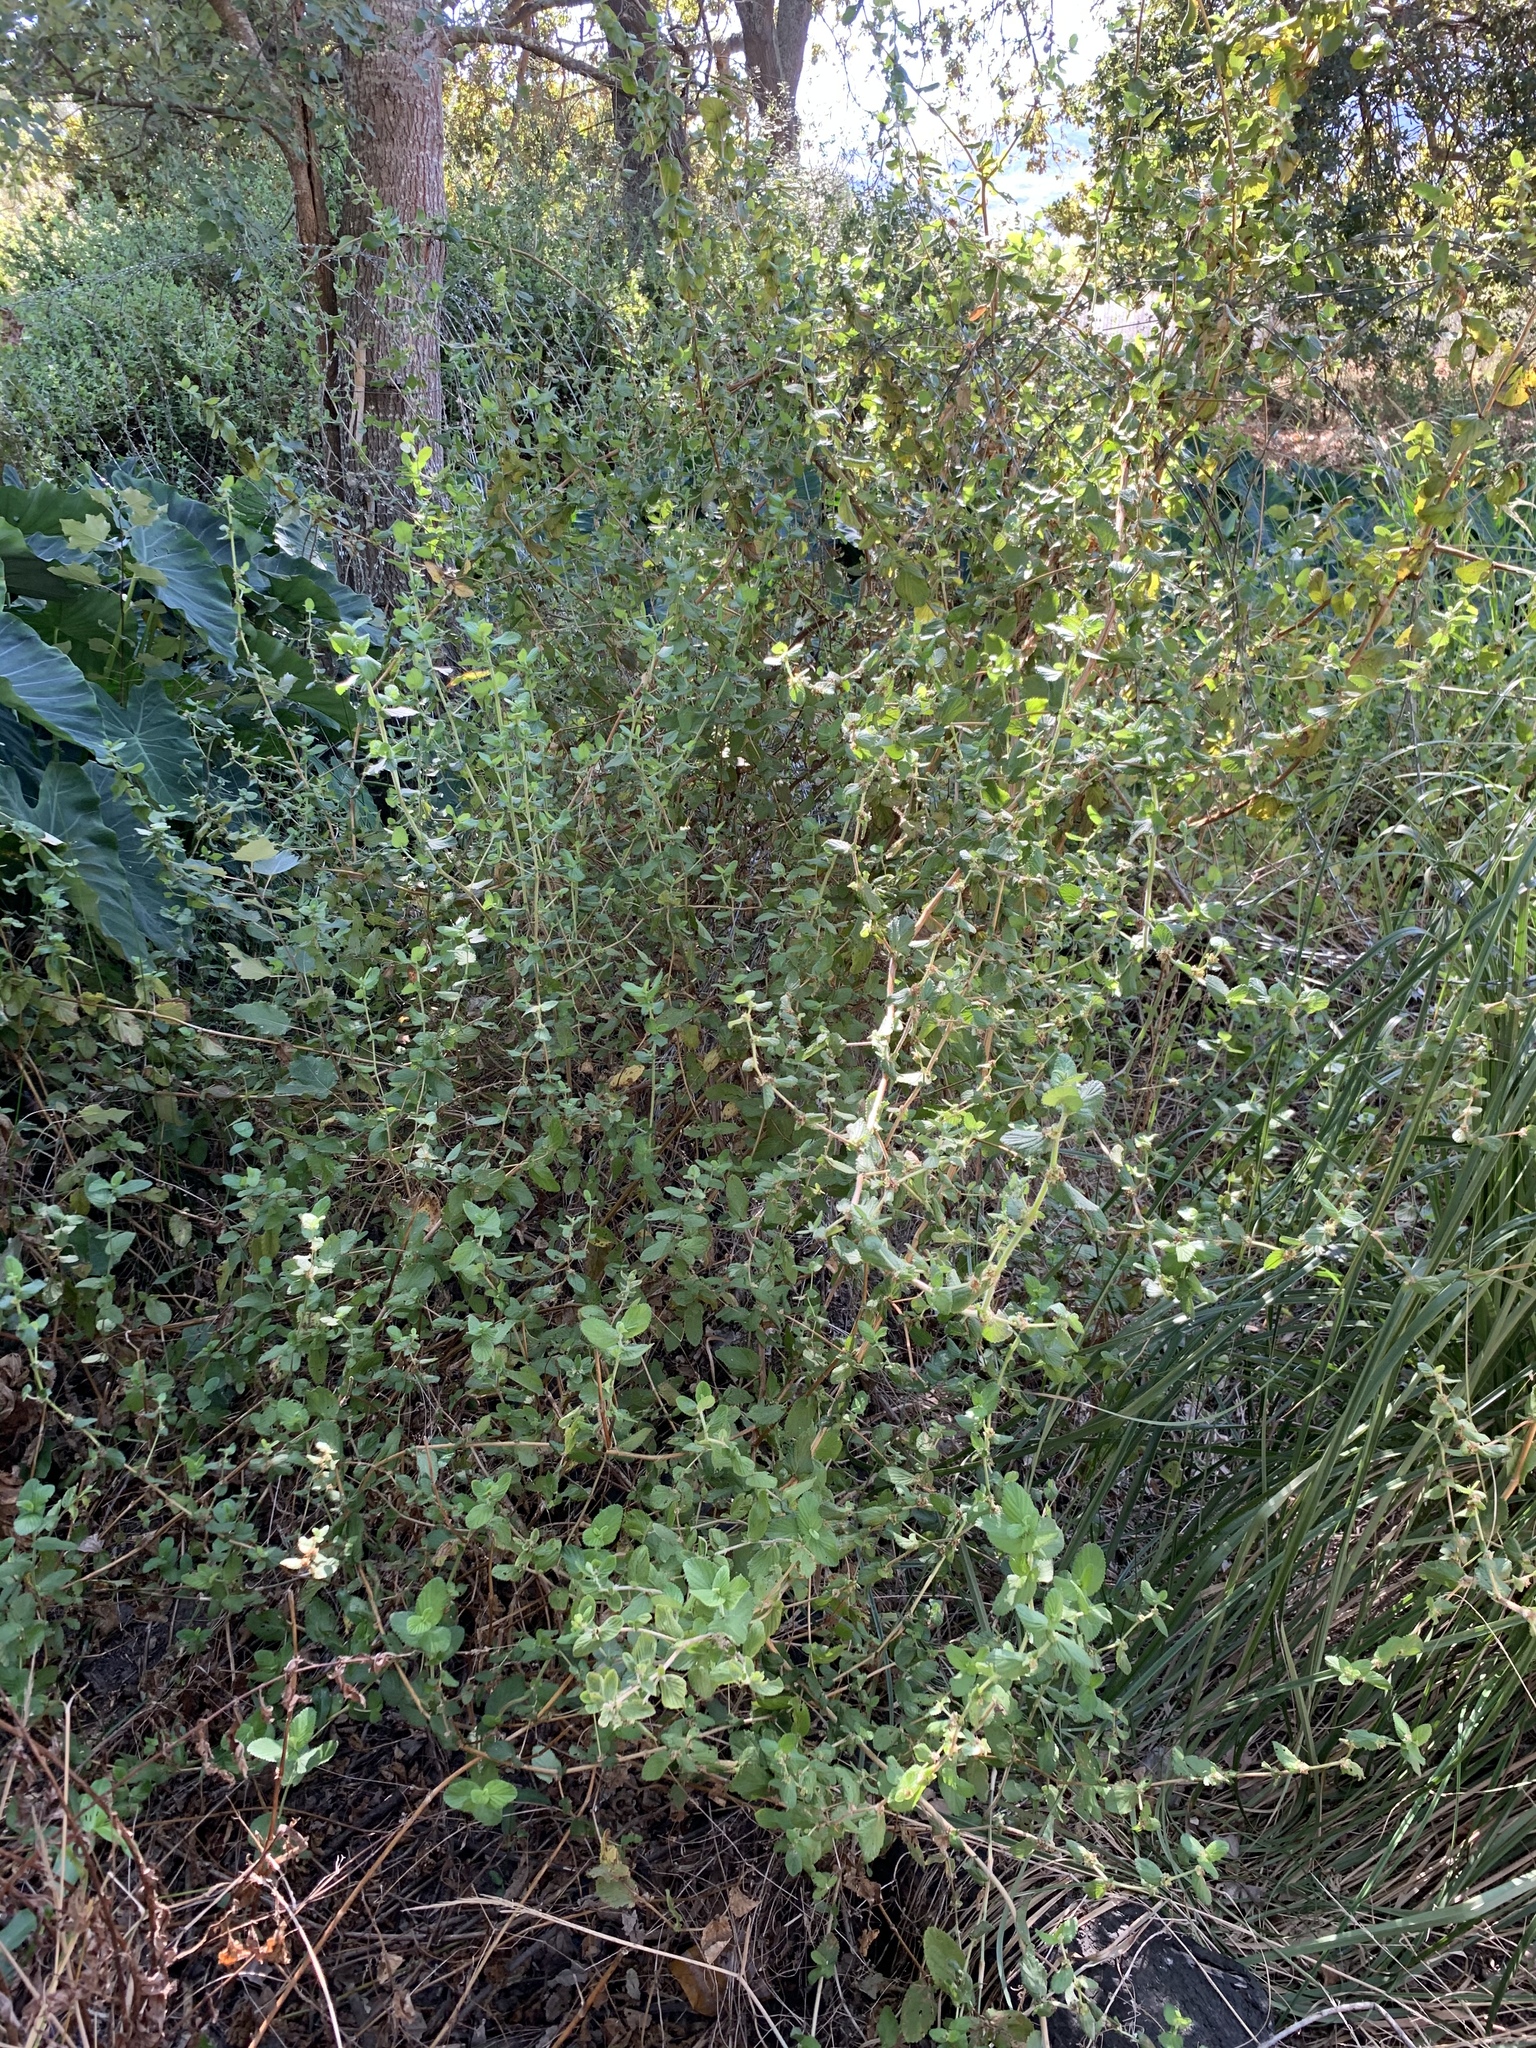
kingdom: Plantae
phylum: Tracheophyta
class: Magnoliopsida
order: Rosales
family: Rosaceae
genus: Cliffortia
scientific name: Cliffortia odorata
